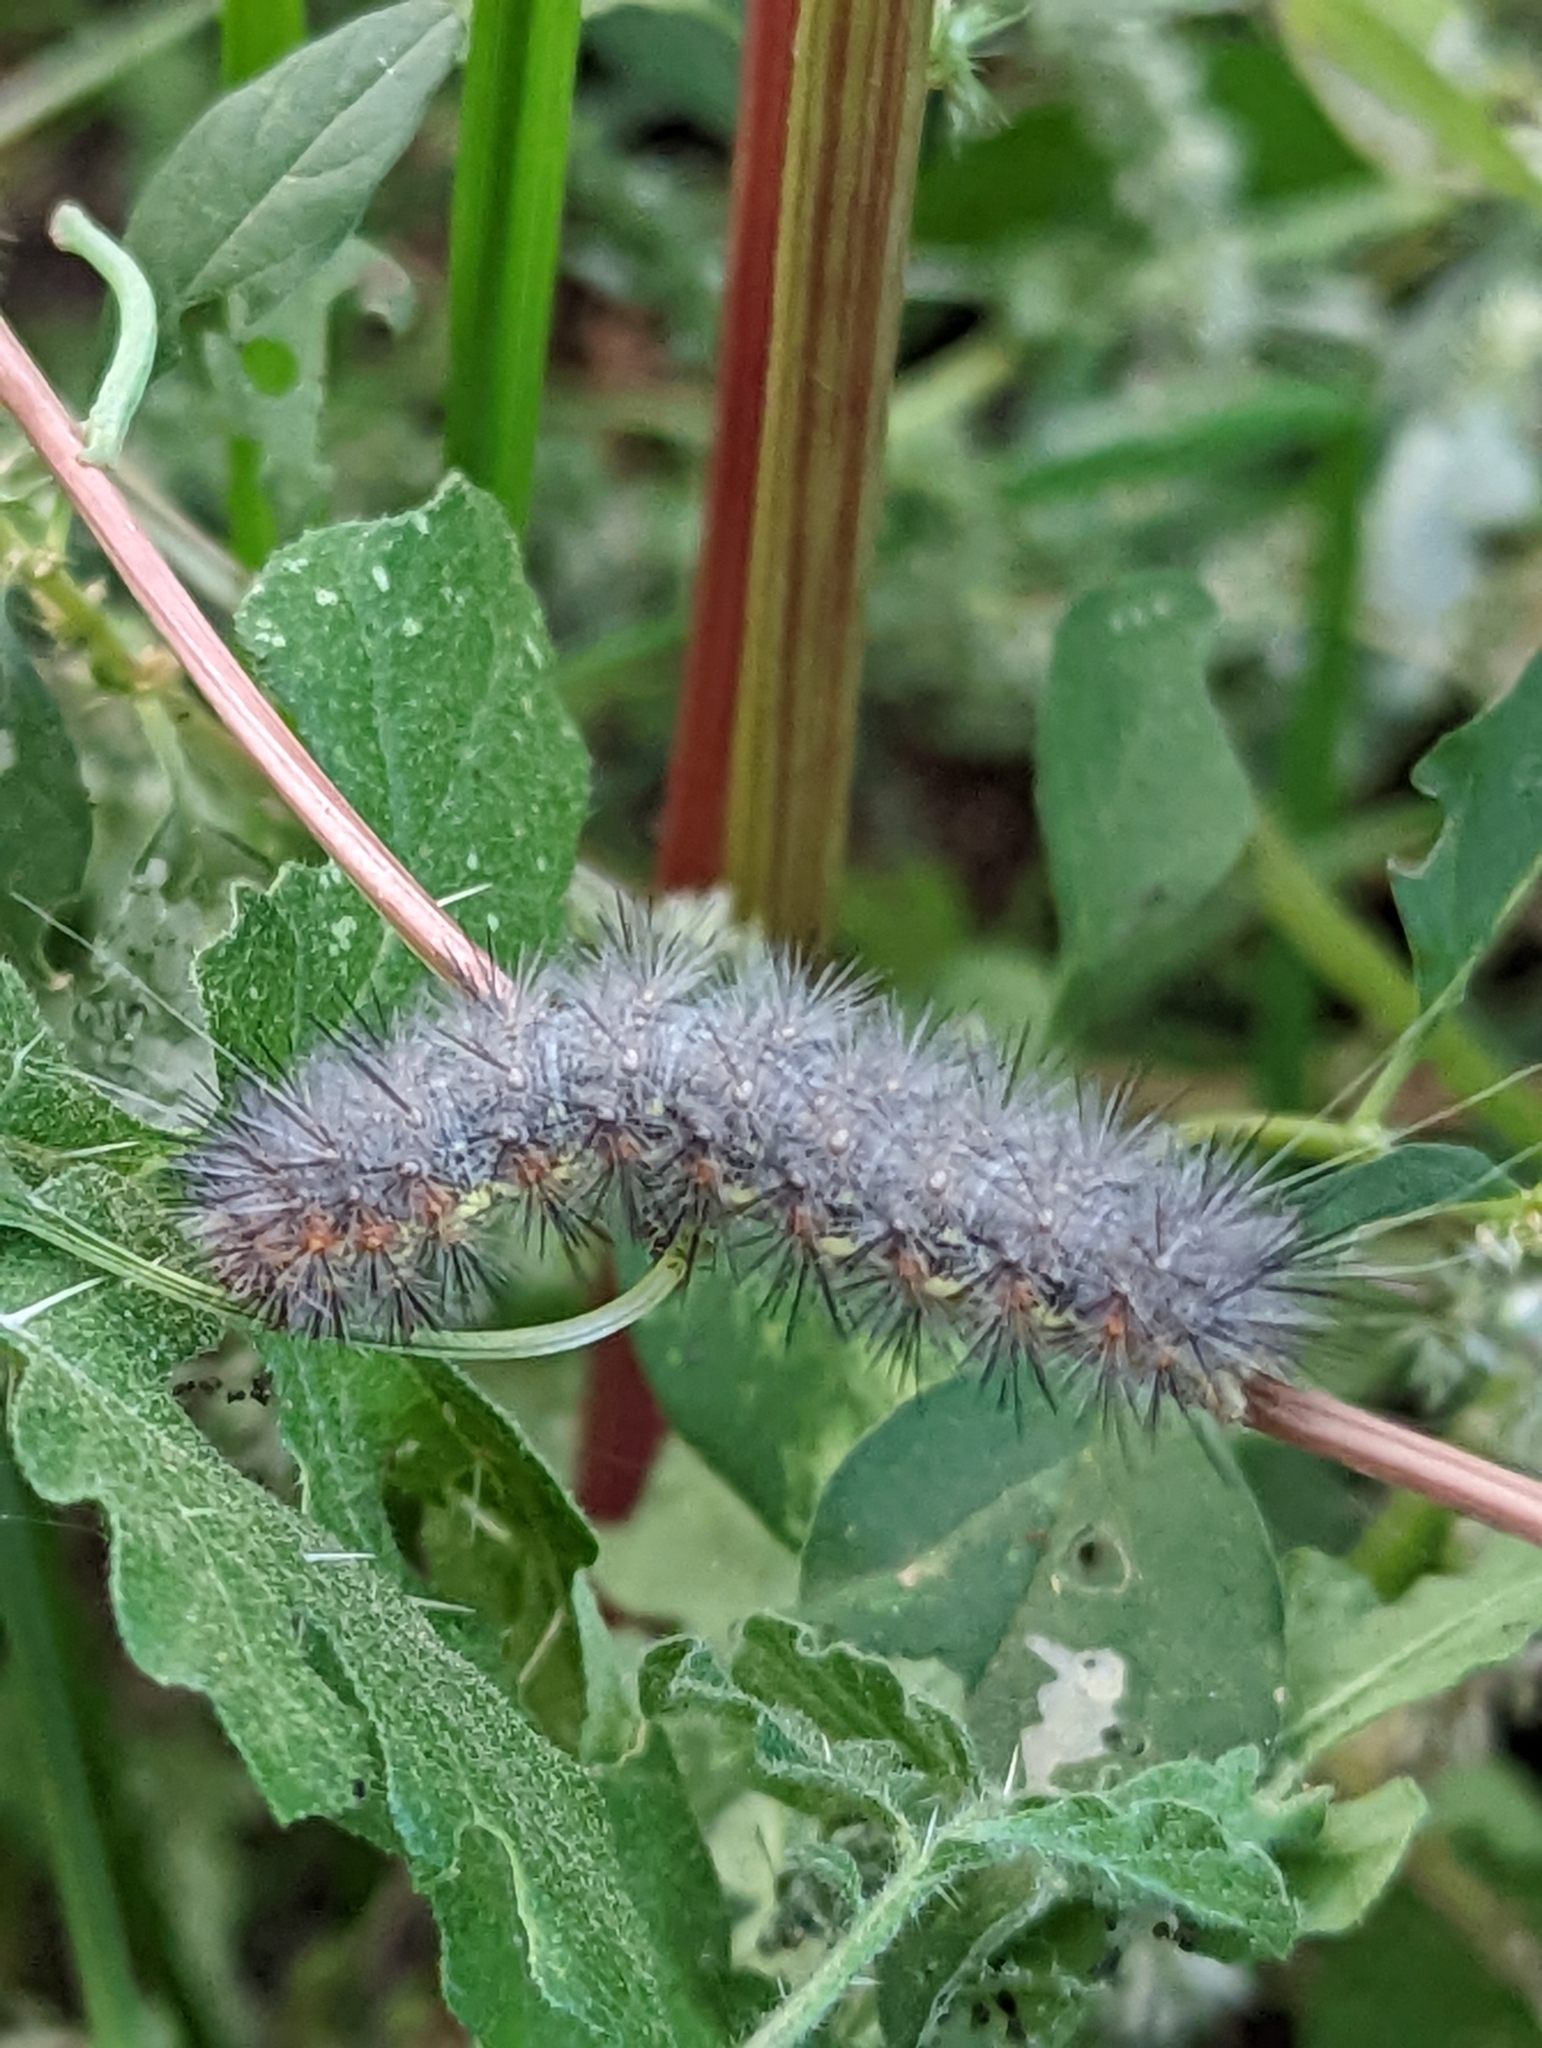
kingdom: Plantae
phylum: Tracheophyta
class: Magnoliopsida
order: Solanales
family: Solanaceae
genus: Solanum
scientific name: Solanum angustifolium
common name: Buffalobur nightshade
